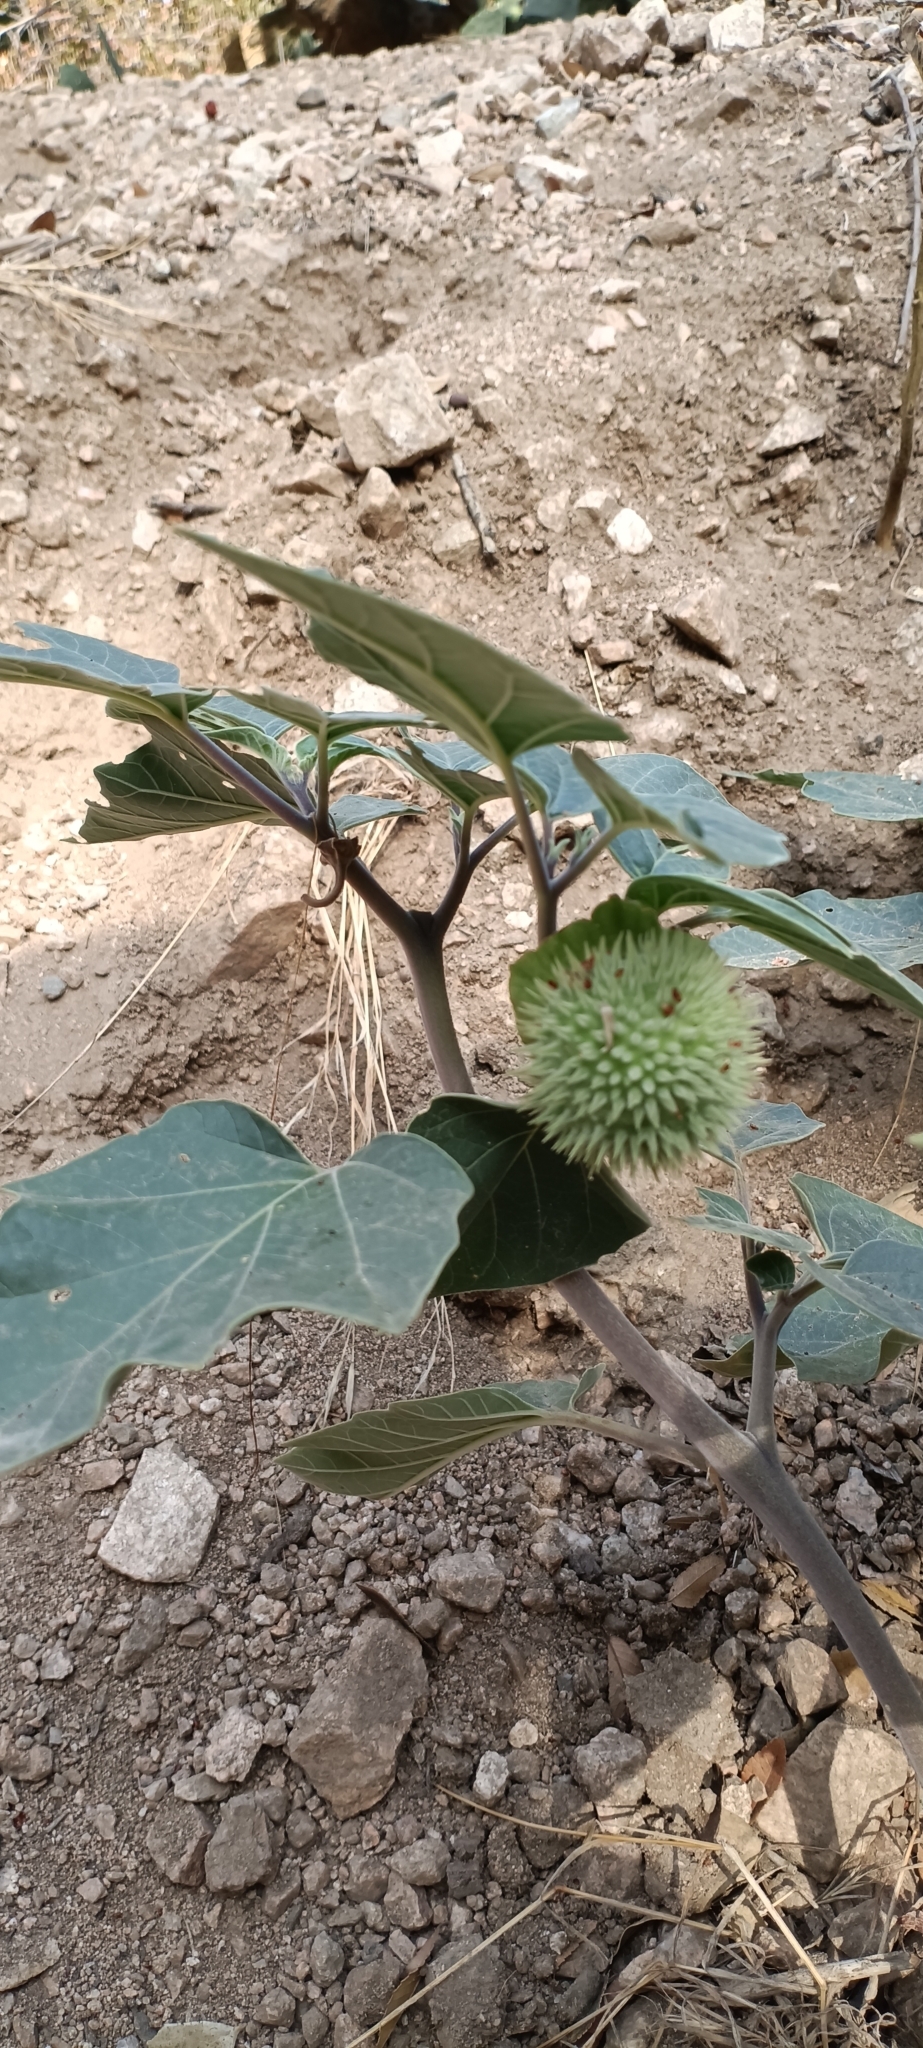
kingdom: Plantae
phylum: Tracheophyta
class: Magnoliopsida
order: Solanales
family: Solanaceae
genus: Datura
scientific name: Datura wrightii
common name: Sacred thorn-apple
